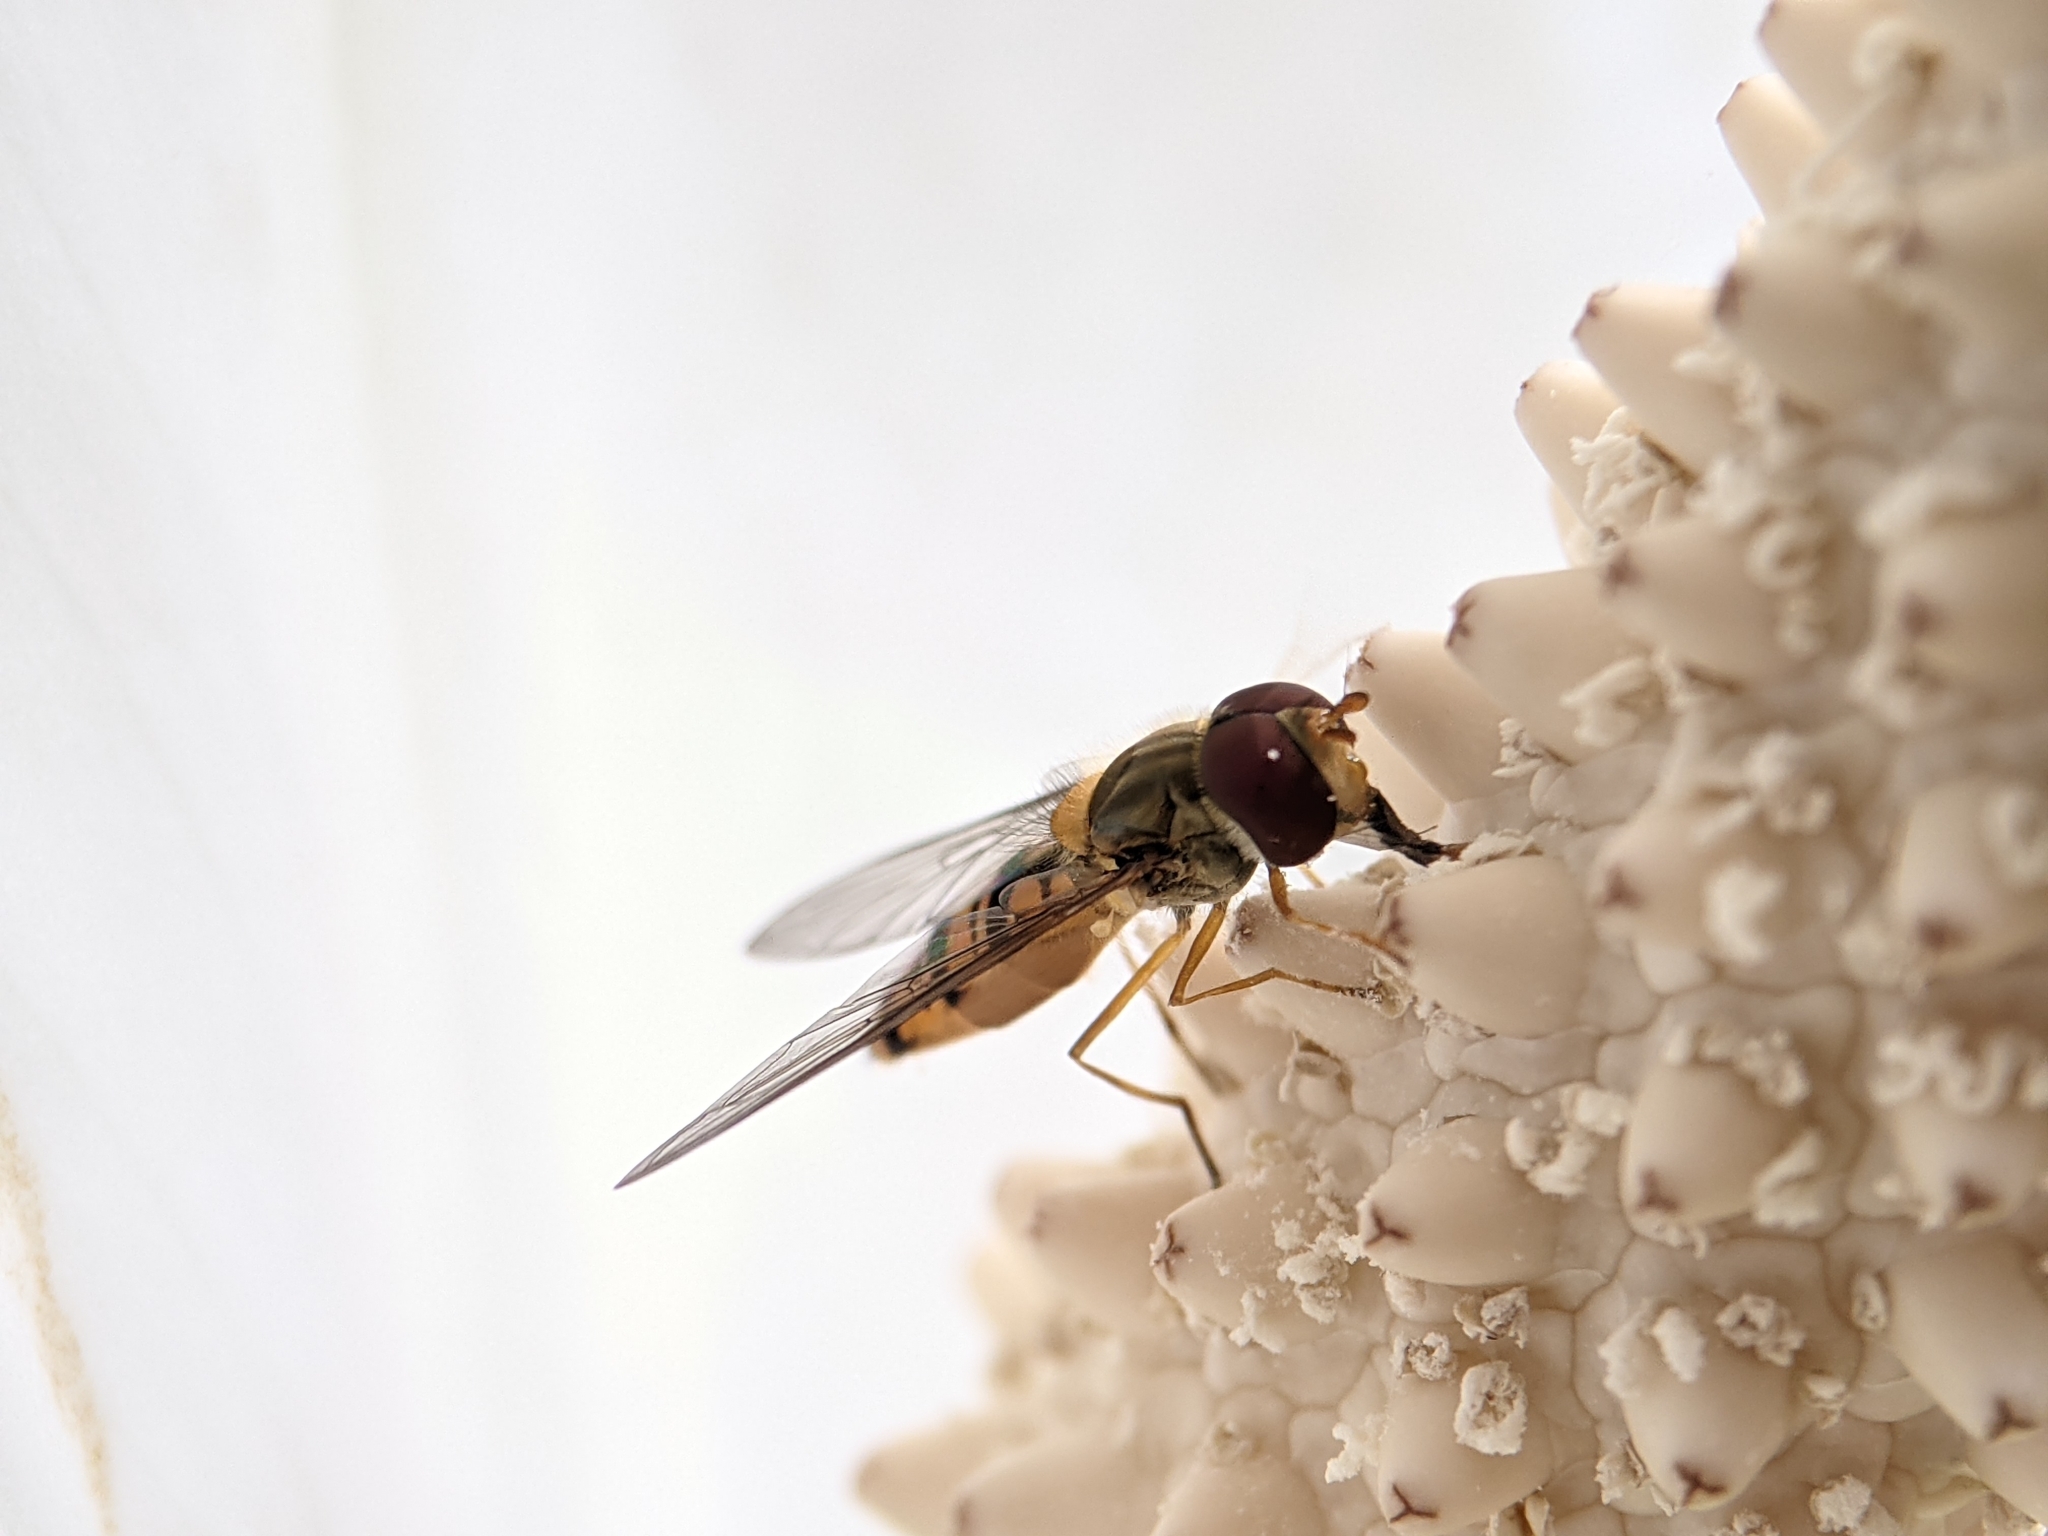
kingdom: Animalia
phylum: Arthropoda
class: Insecta
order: Diptera
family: Syrphidae
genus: Episyrphus
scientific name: Episyrphus balteatus
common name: Marmalade hoverfly
